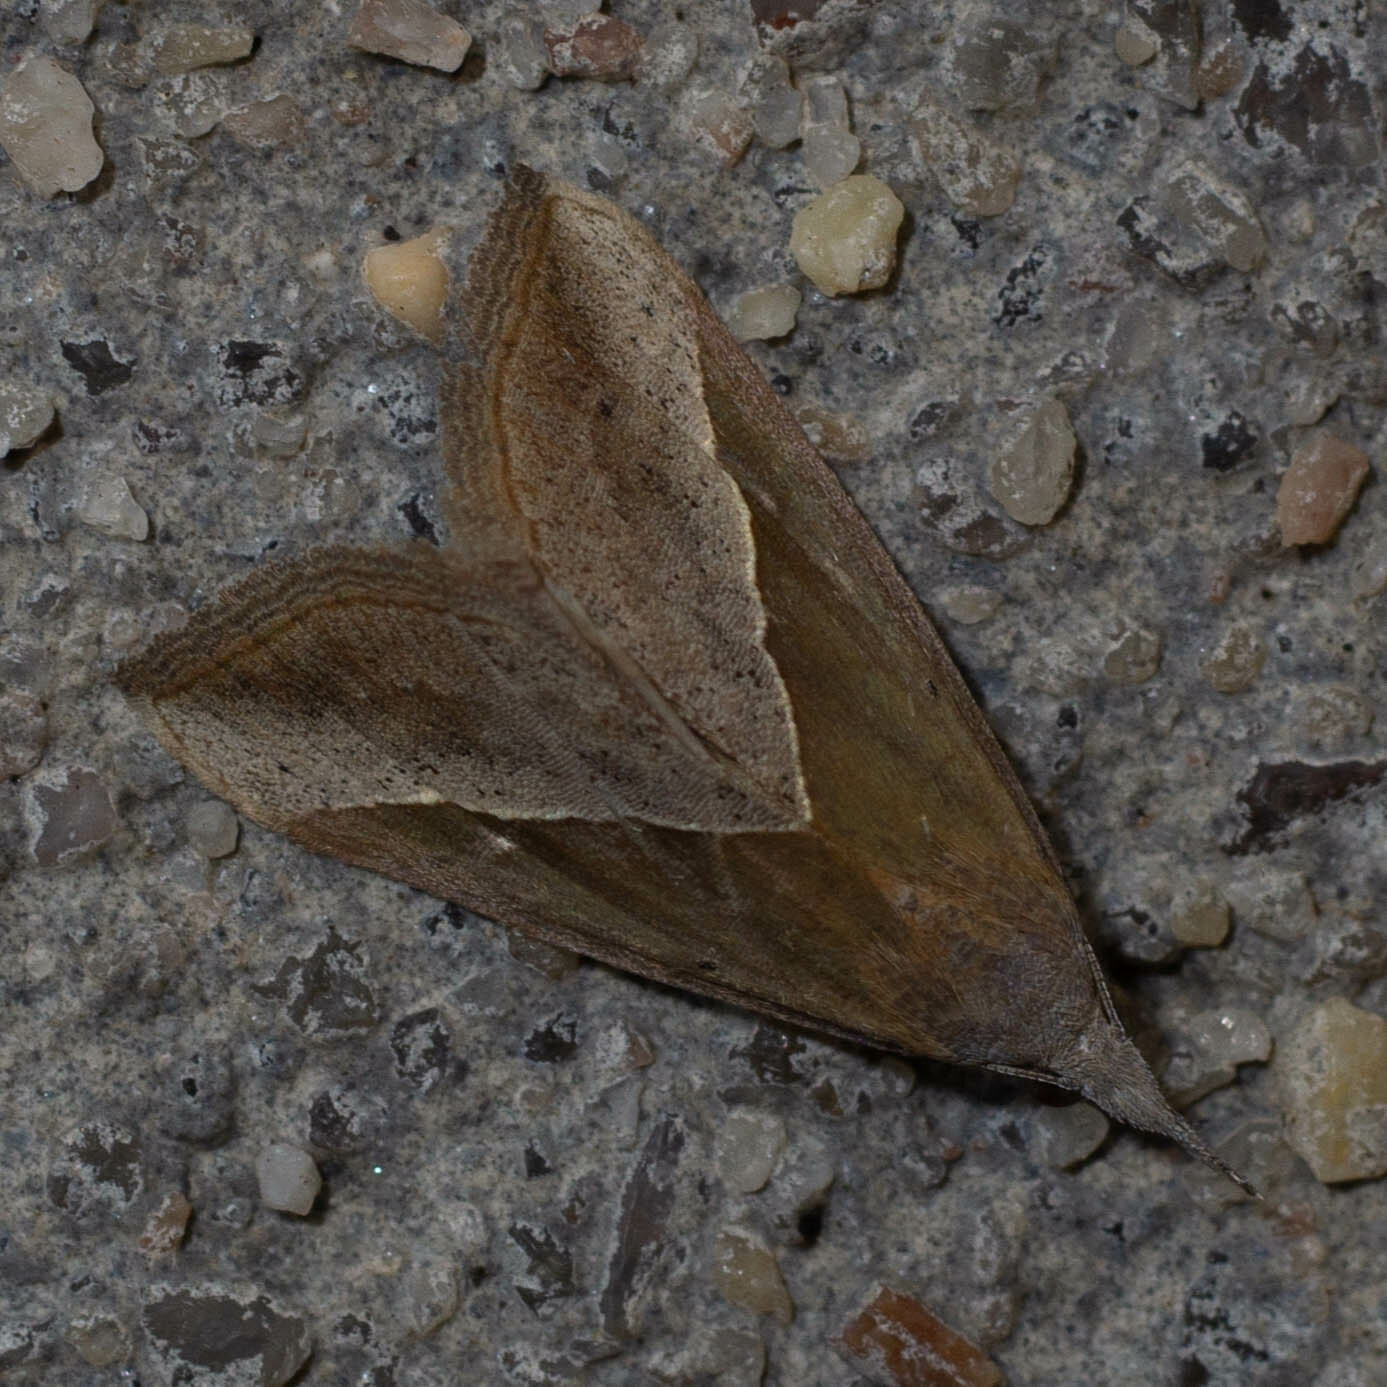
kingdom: Animalia
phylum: Arthropoda
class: Insecta
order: Lepidoptera
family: Erebidae
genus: Hypena
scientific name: Hypena lividalis
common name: Chevron snout
